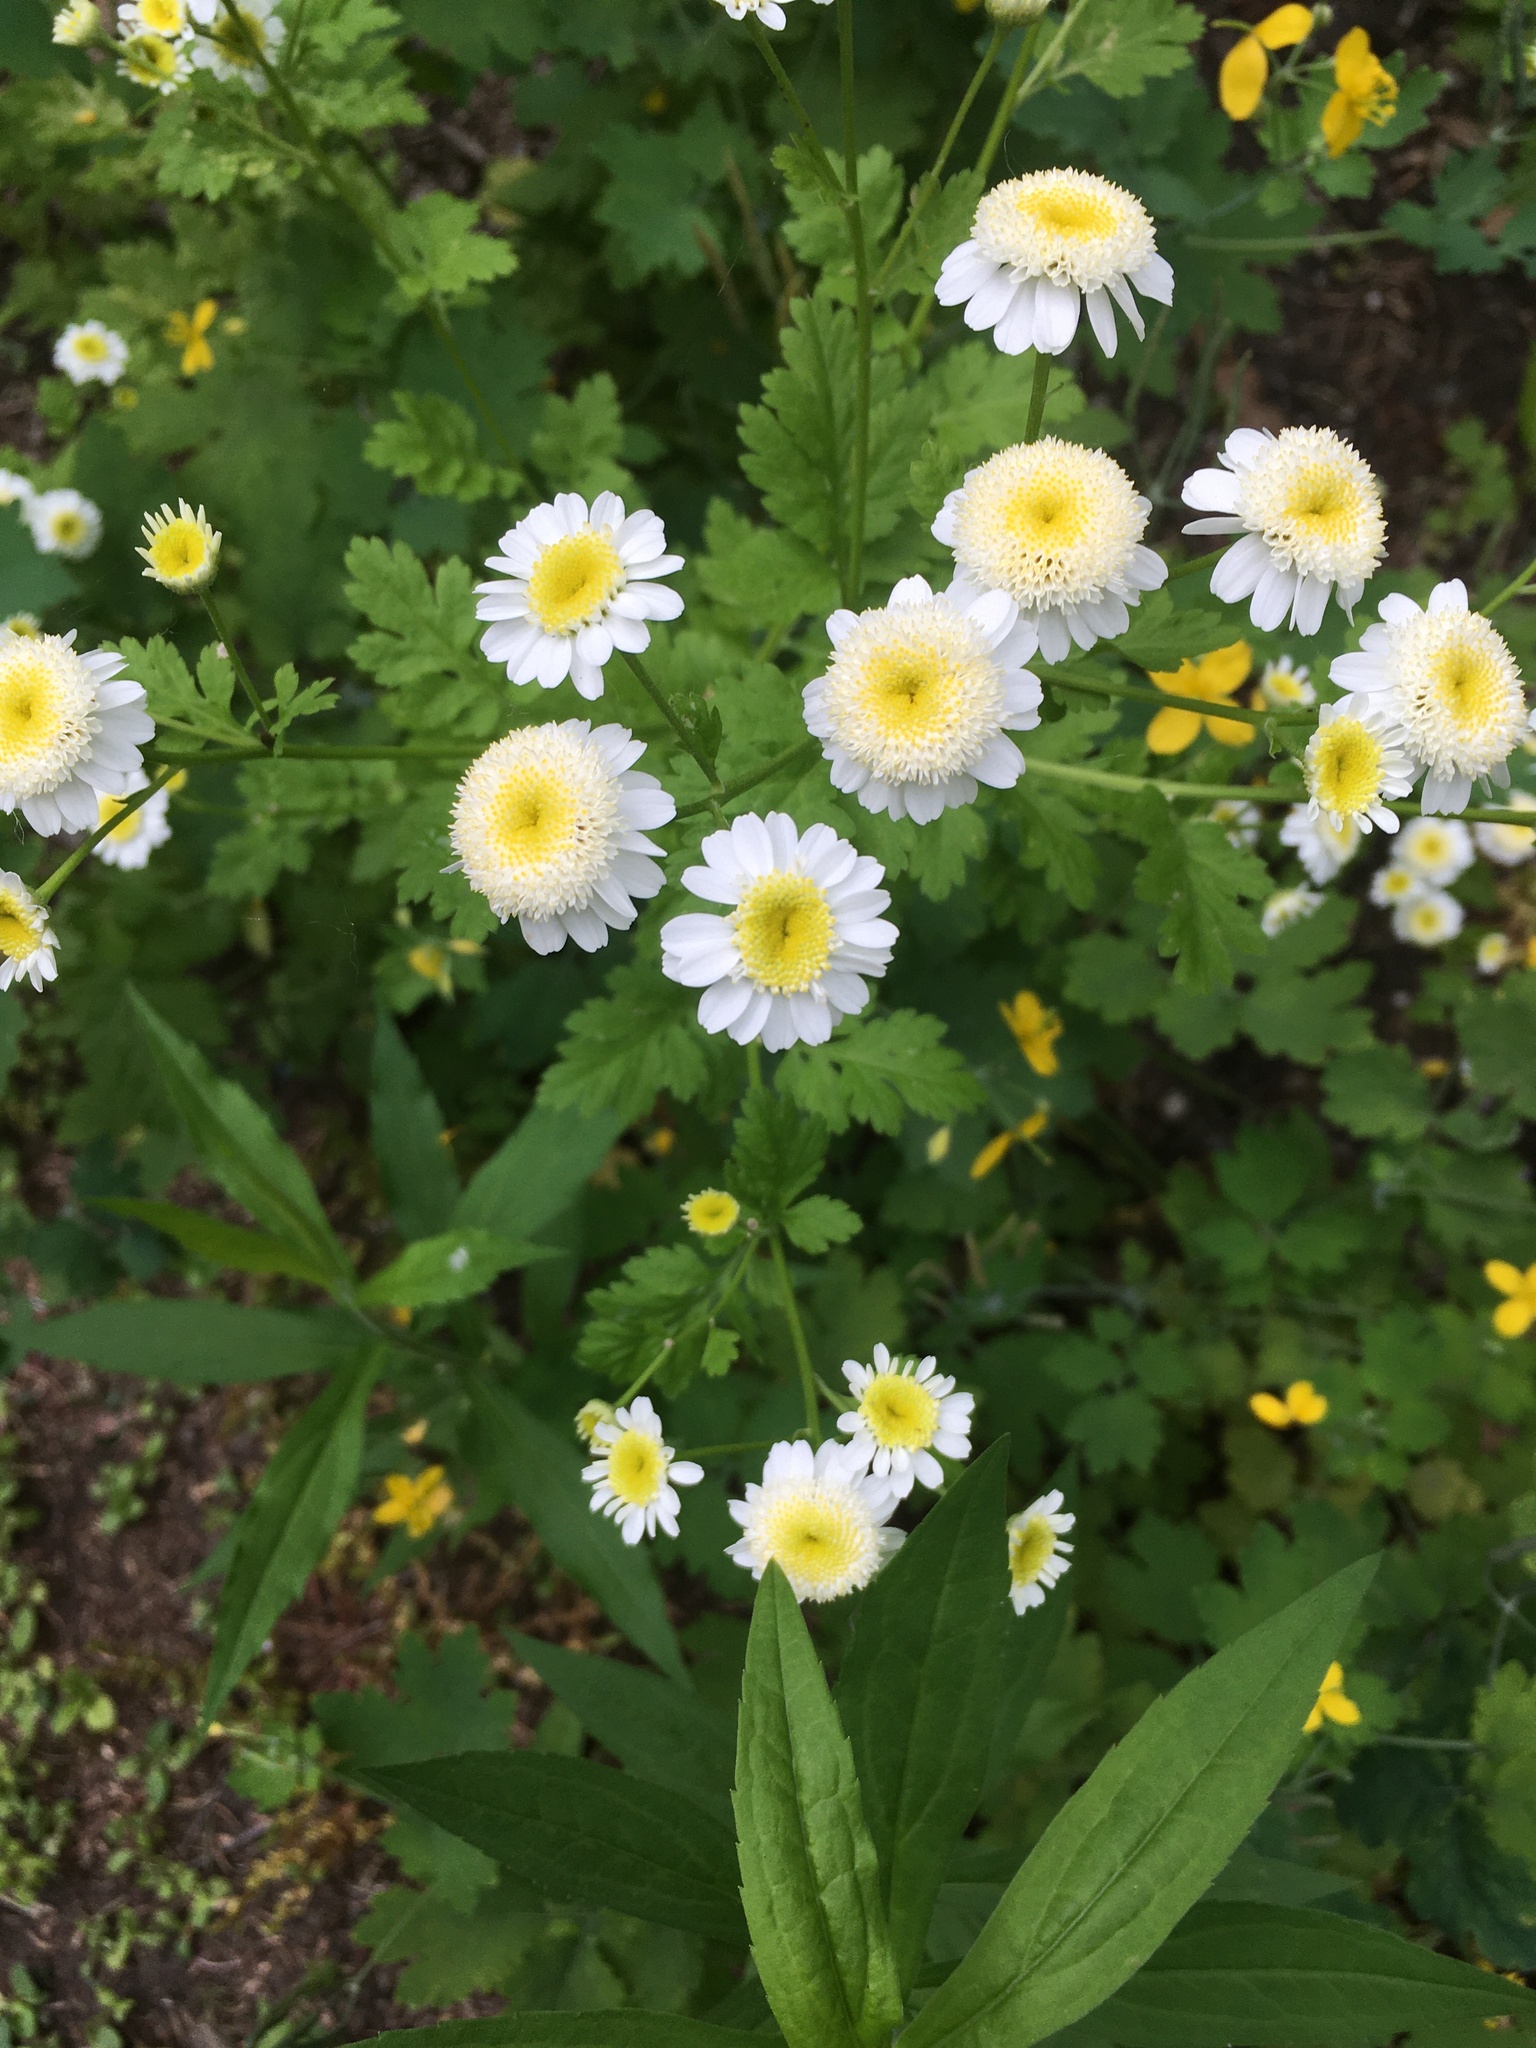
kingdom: Plantae
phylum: Tracheophyta
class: Magnoliopsida
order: Asterales
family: Asteraceae
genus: Tanacetum
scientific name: Tanacetum parthenium
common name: Feverfew
